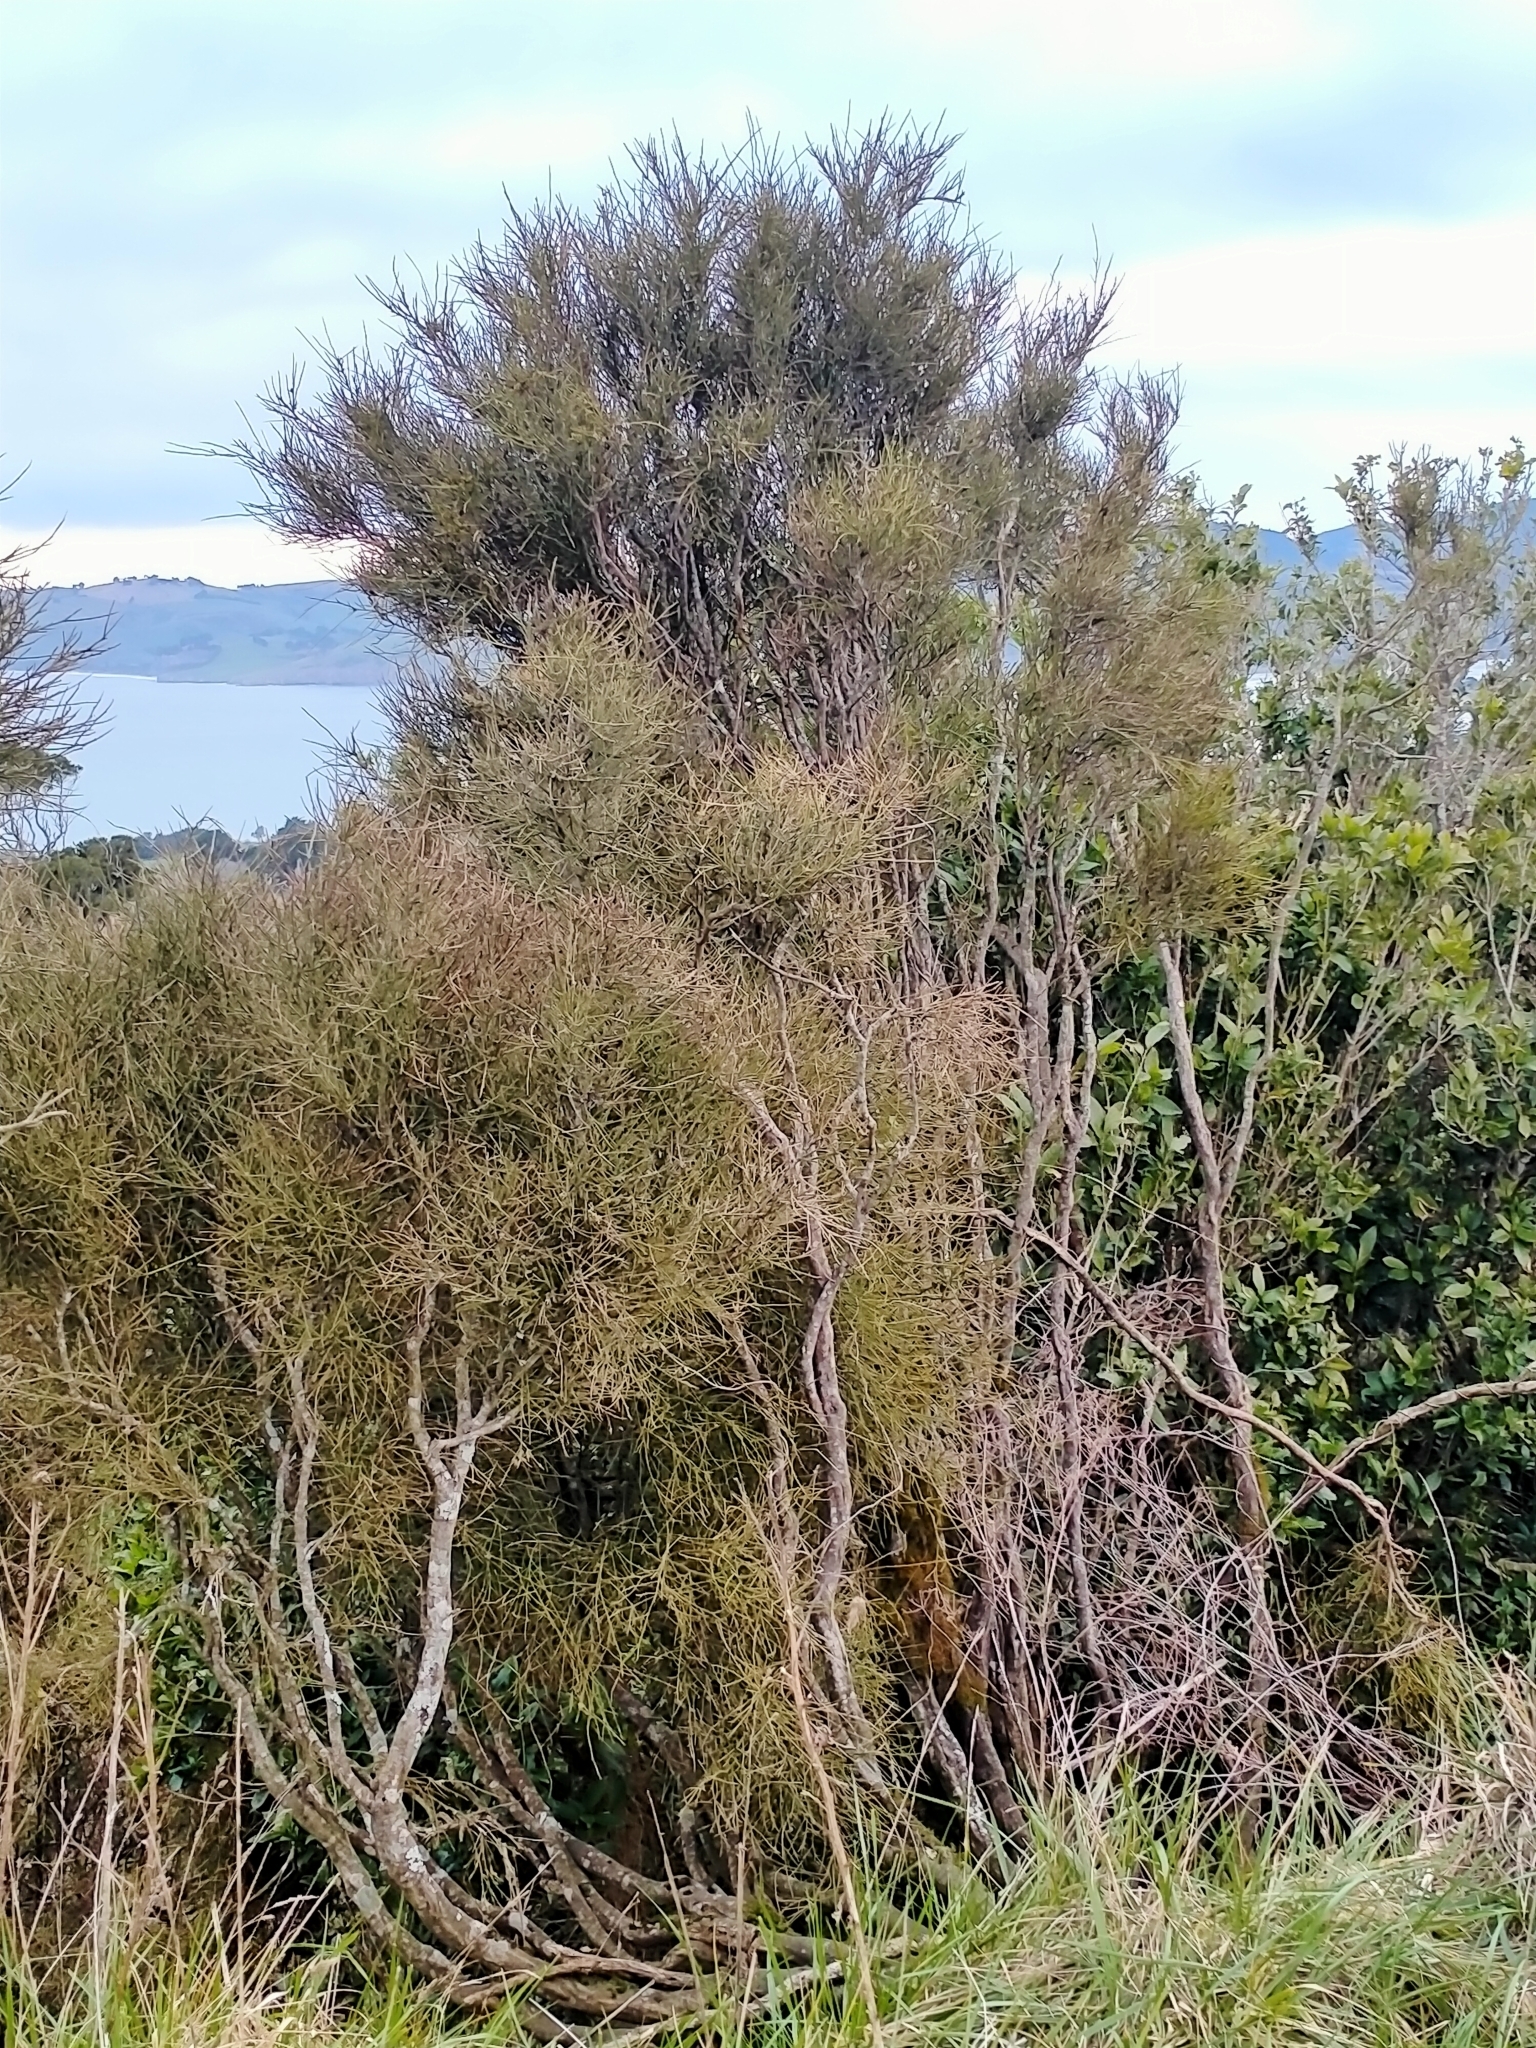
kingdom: Plantae
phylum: Tracheophyta
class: Magnoliopsida
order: Fabales
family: Fabaceae
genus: Carmichaelia
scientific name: Carmichaelia petriei
